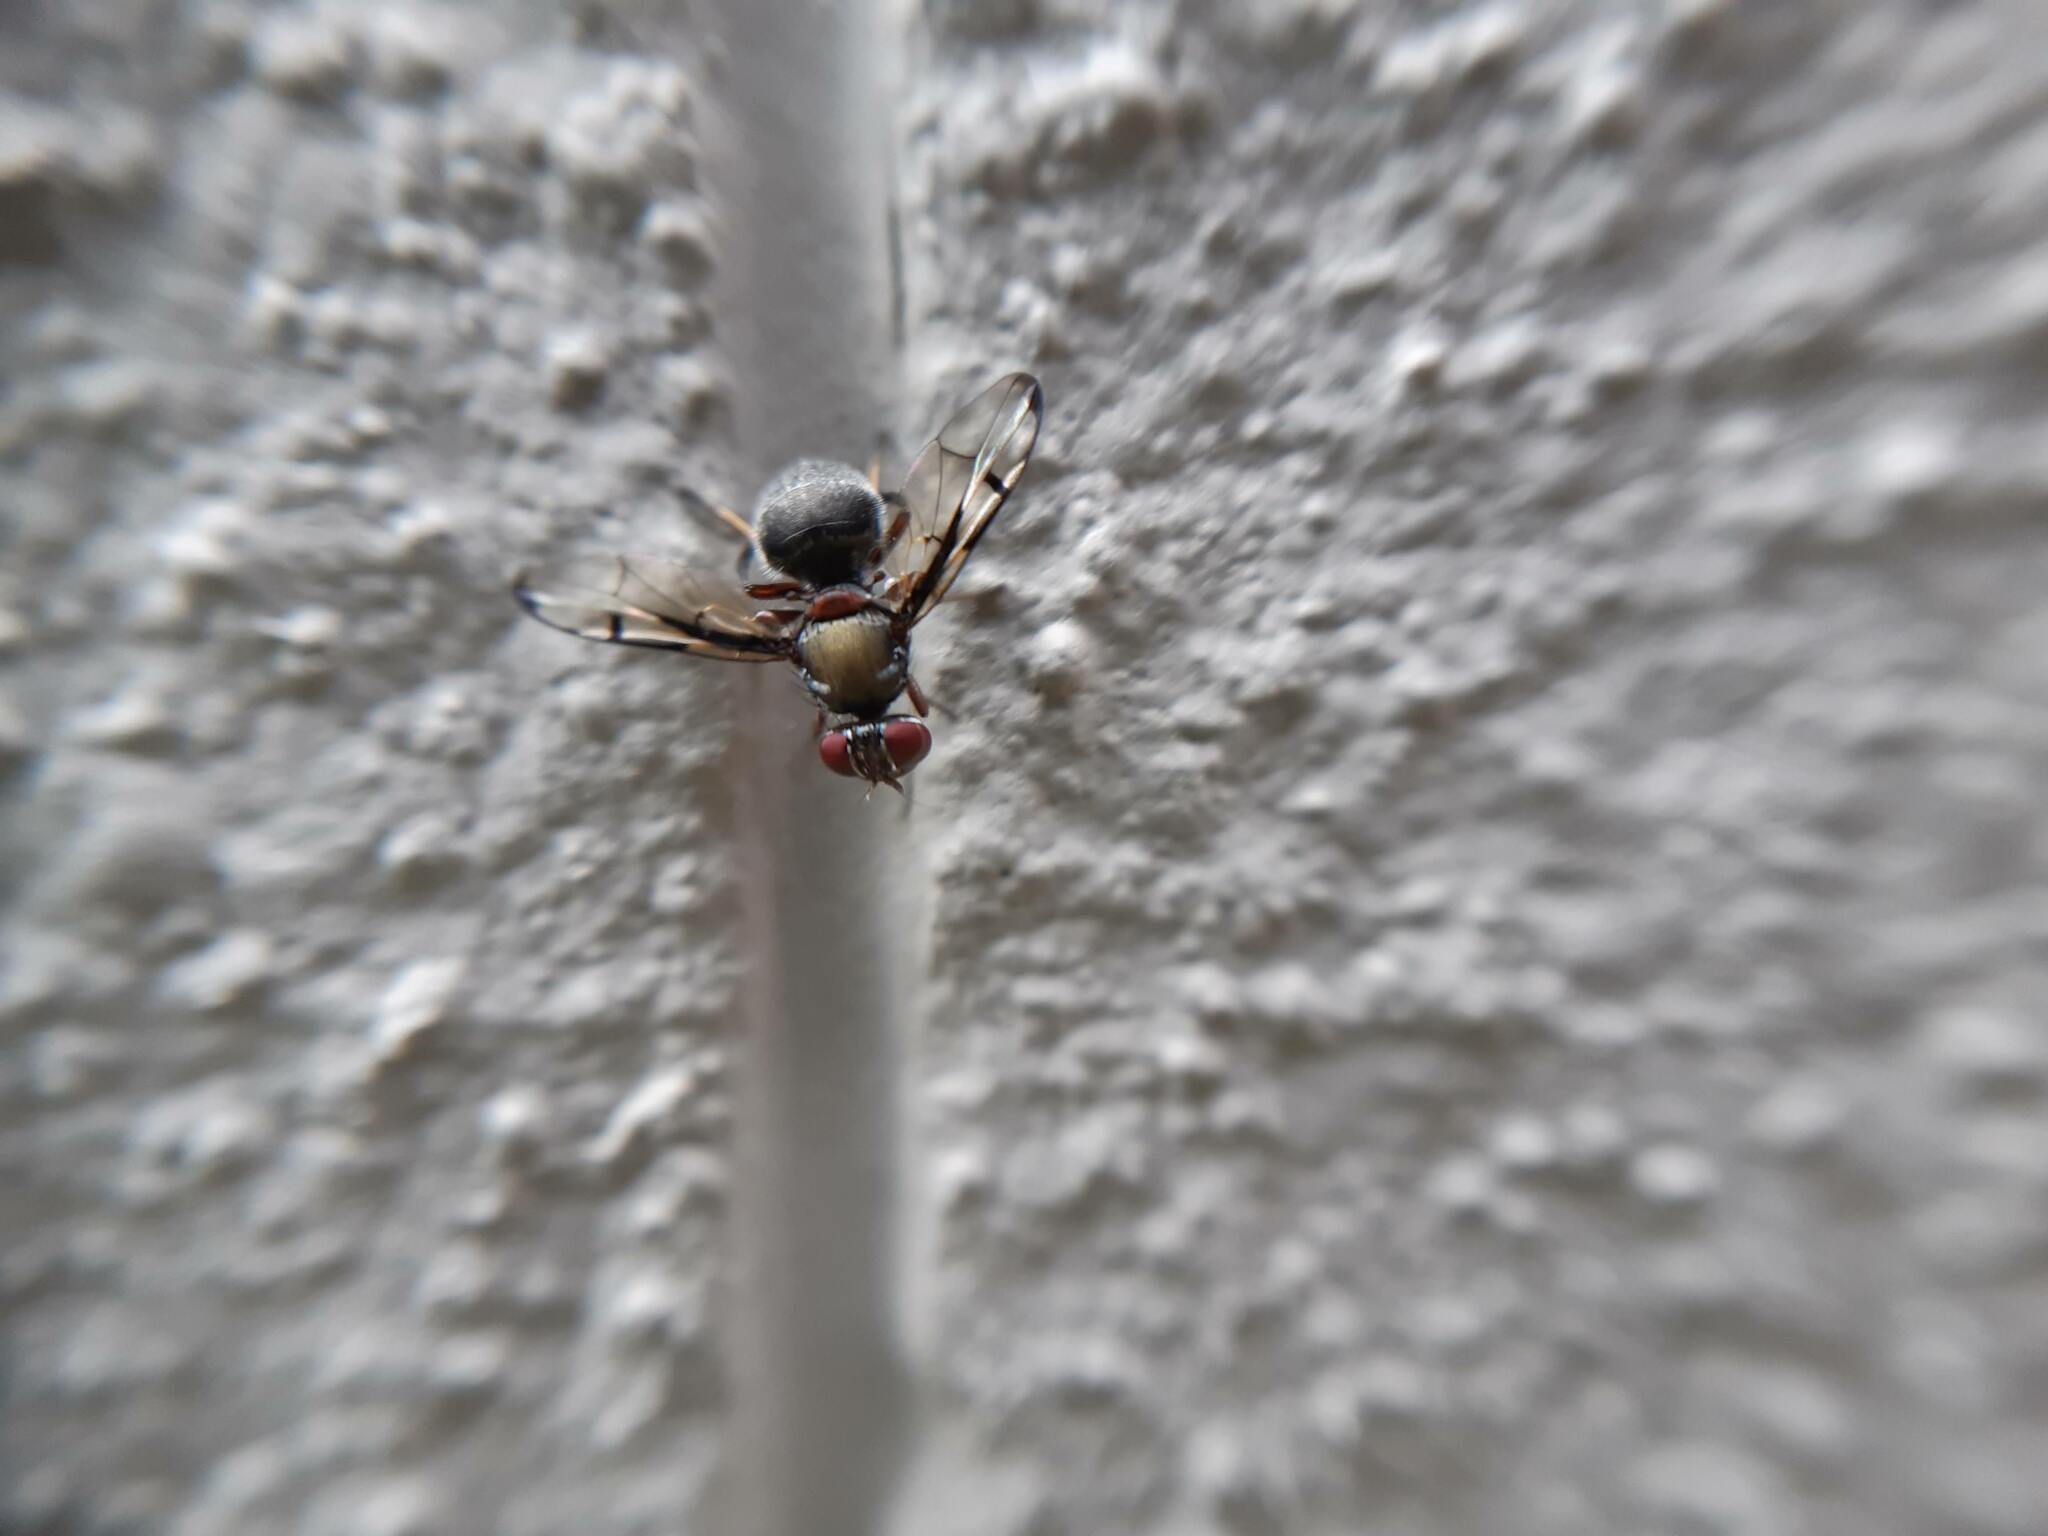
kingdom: Animalia
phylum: Arthropoda
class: Insecta
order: Diptera
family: Platystomatidae
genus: Pogonortalis
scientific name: Pogonortalis doclea
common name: Boatman fly
